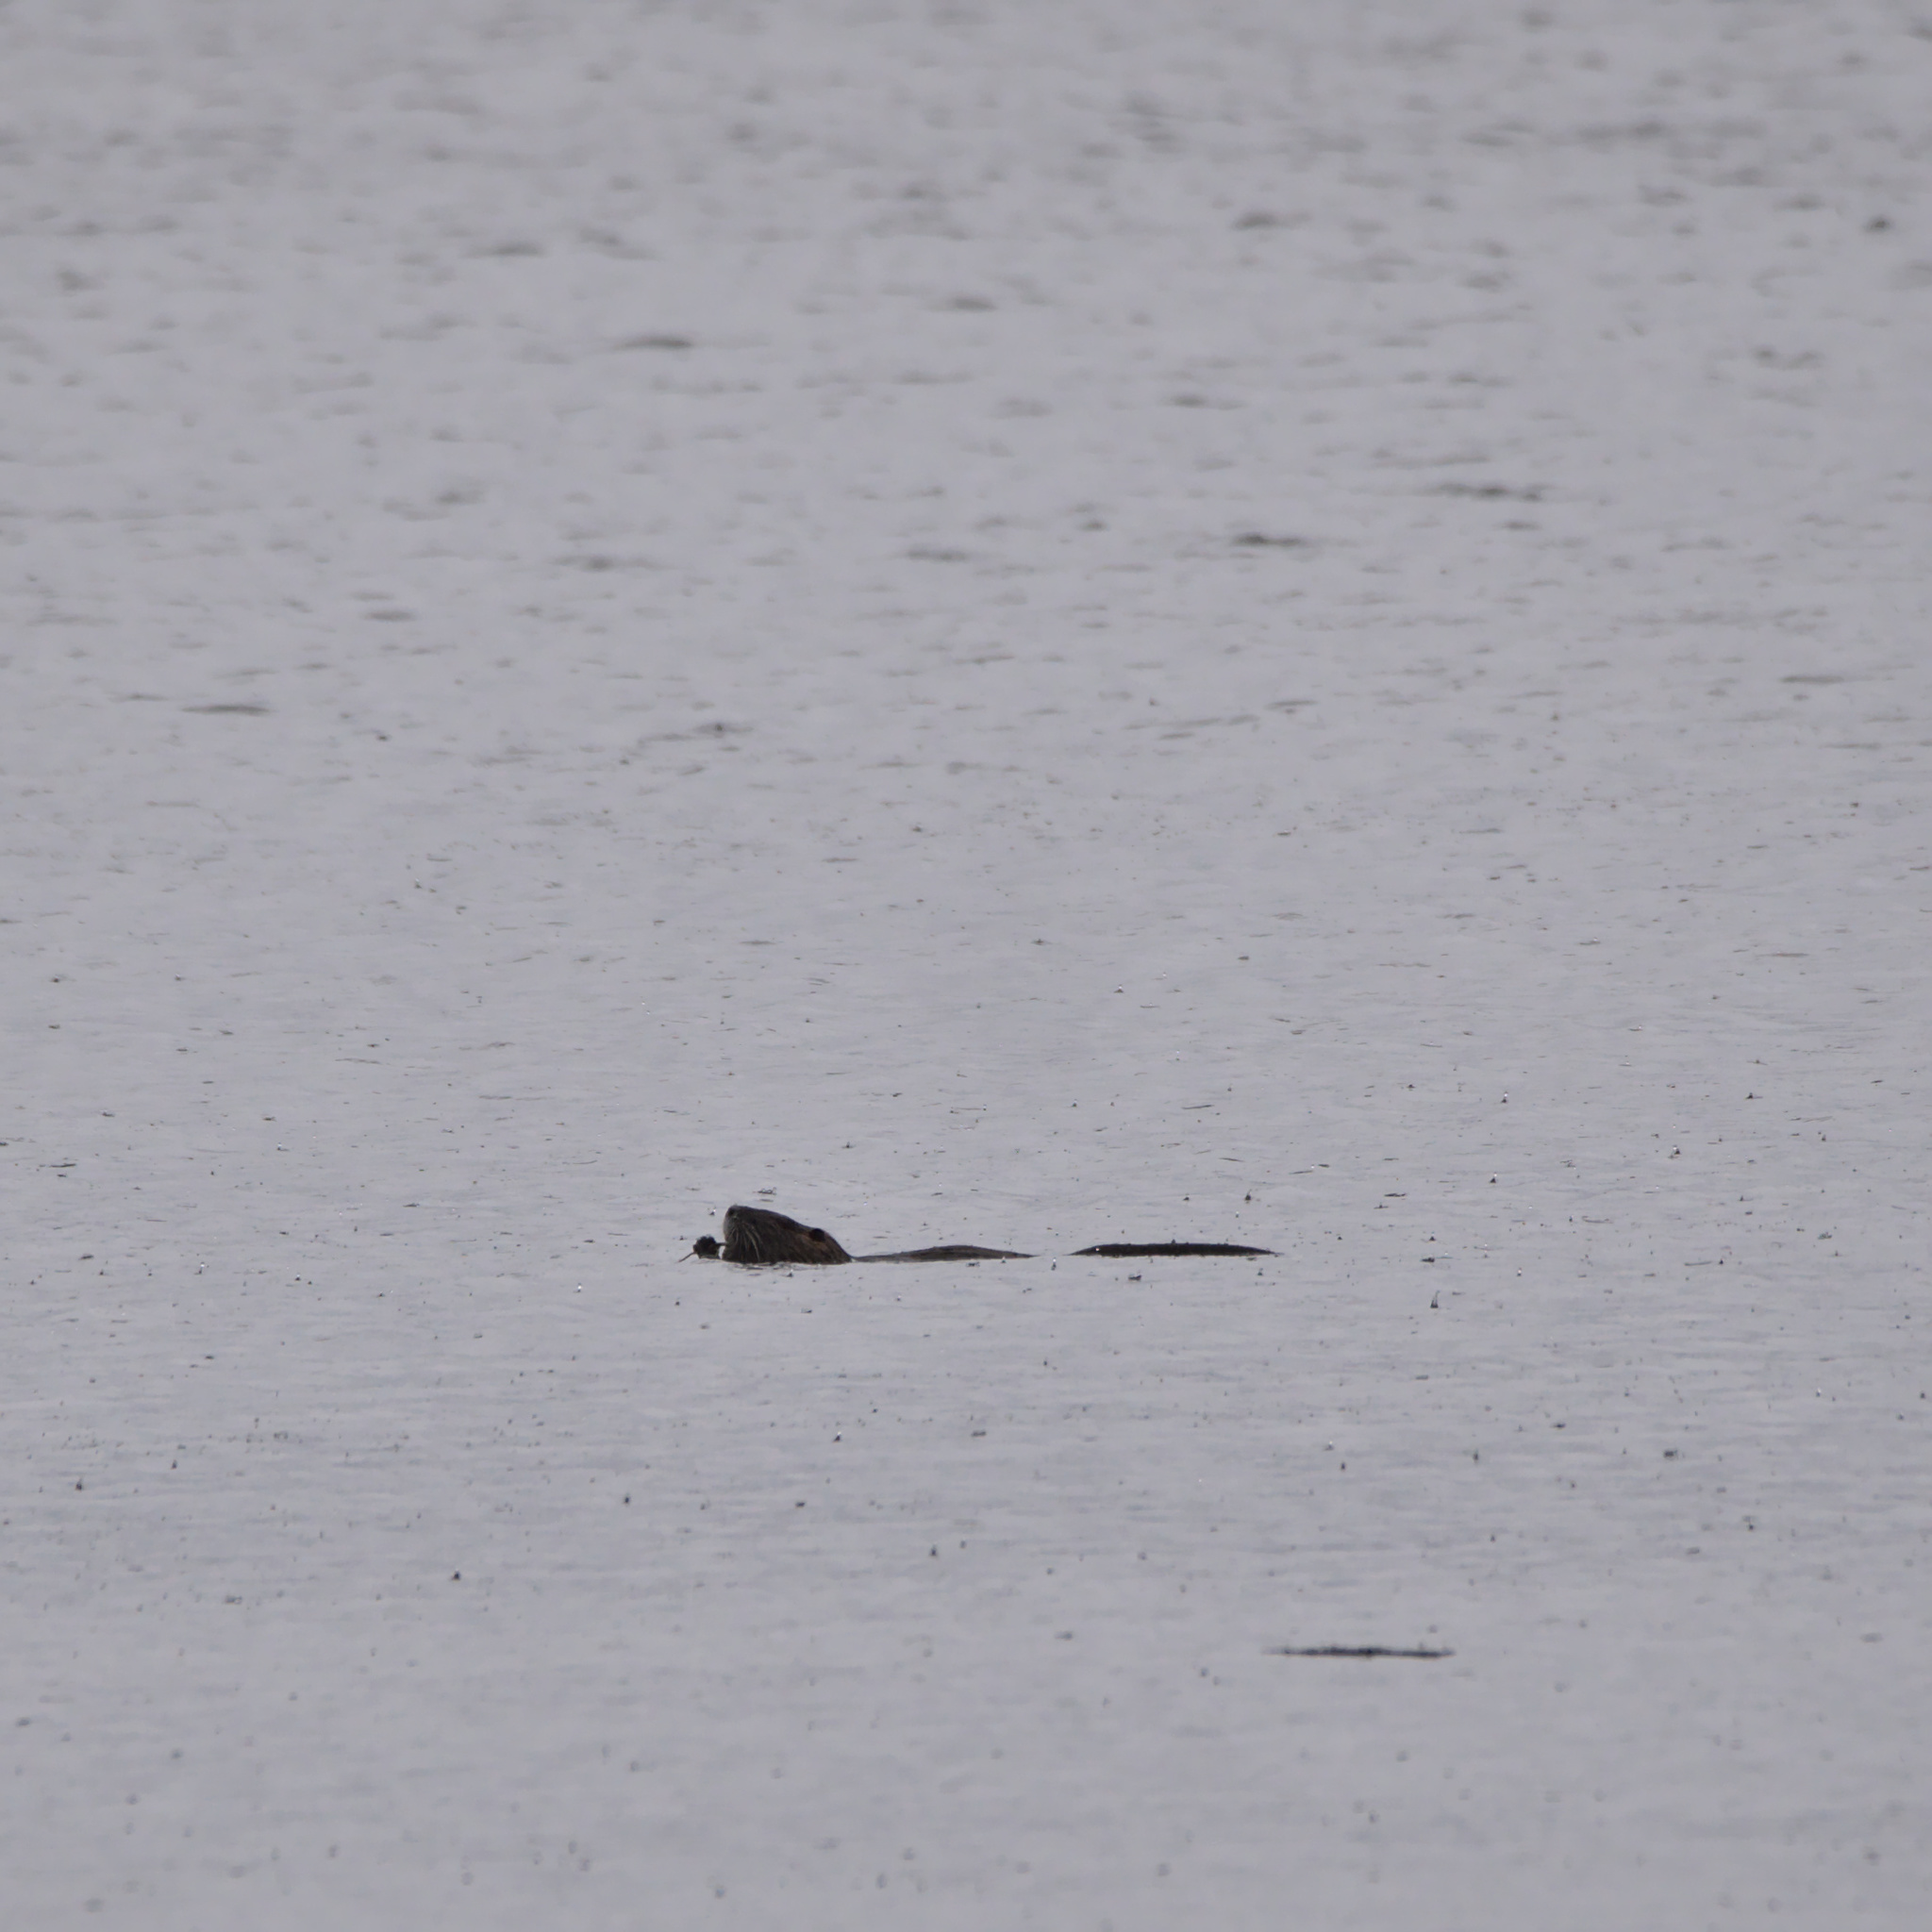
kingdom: Animalia
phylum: Chordata
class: Mammalia
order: Rodentia
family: Myocastoridae
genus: Myocastor
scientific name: Myocastor coypus
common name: Coypu
